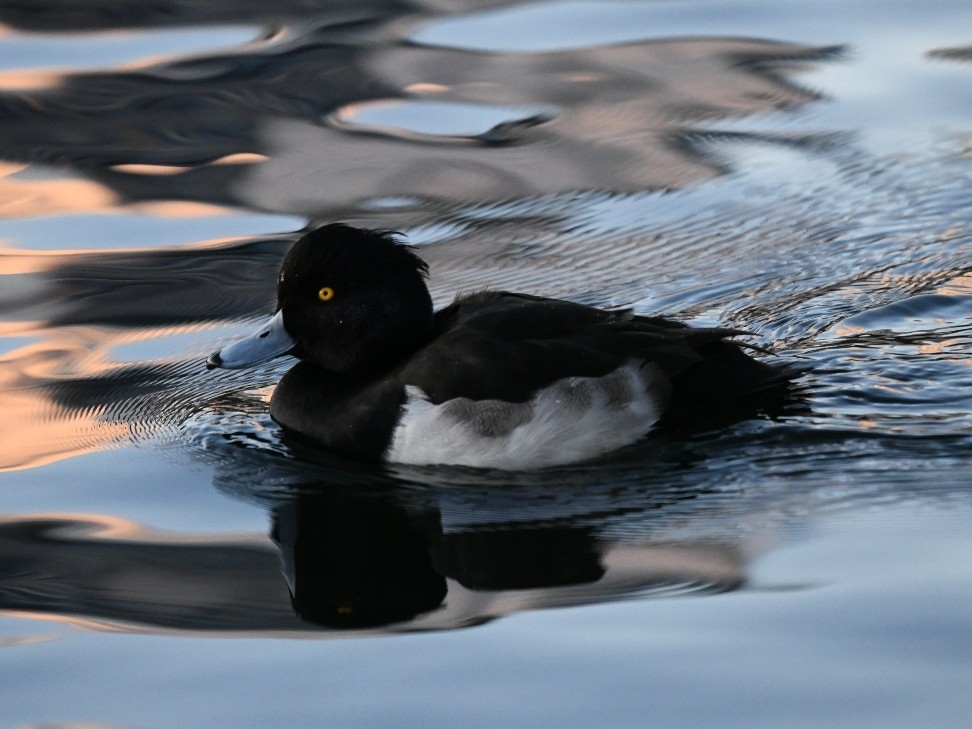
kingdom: Animalia
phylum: Chordata
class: Aves
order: Anseriformes
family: Anatidae
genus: Aythya
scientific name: Aythya fuligula
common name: Tufted duck
